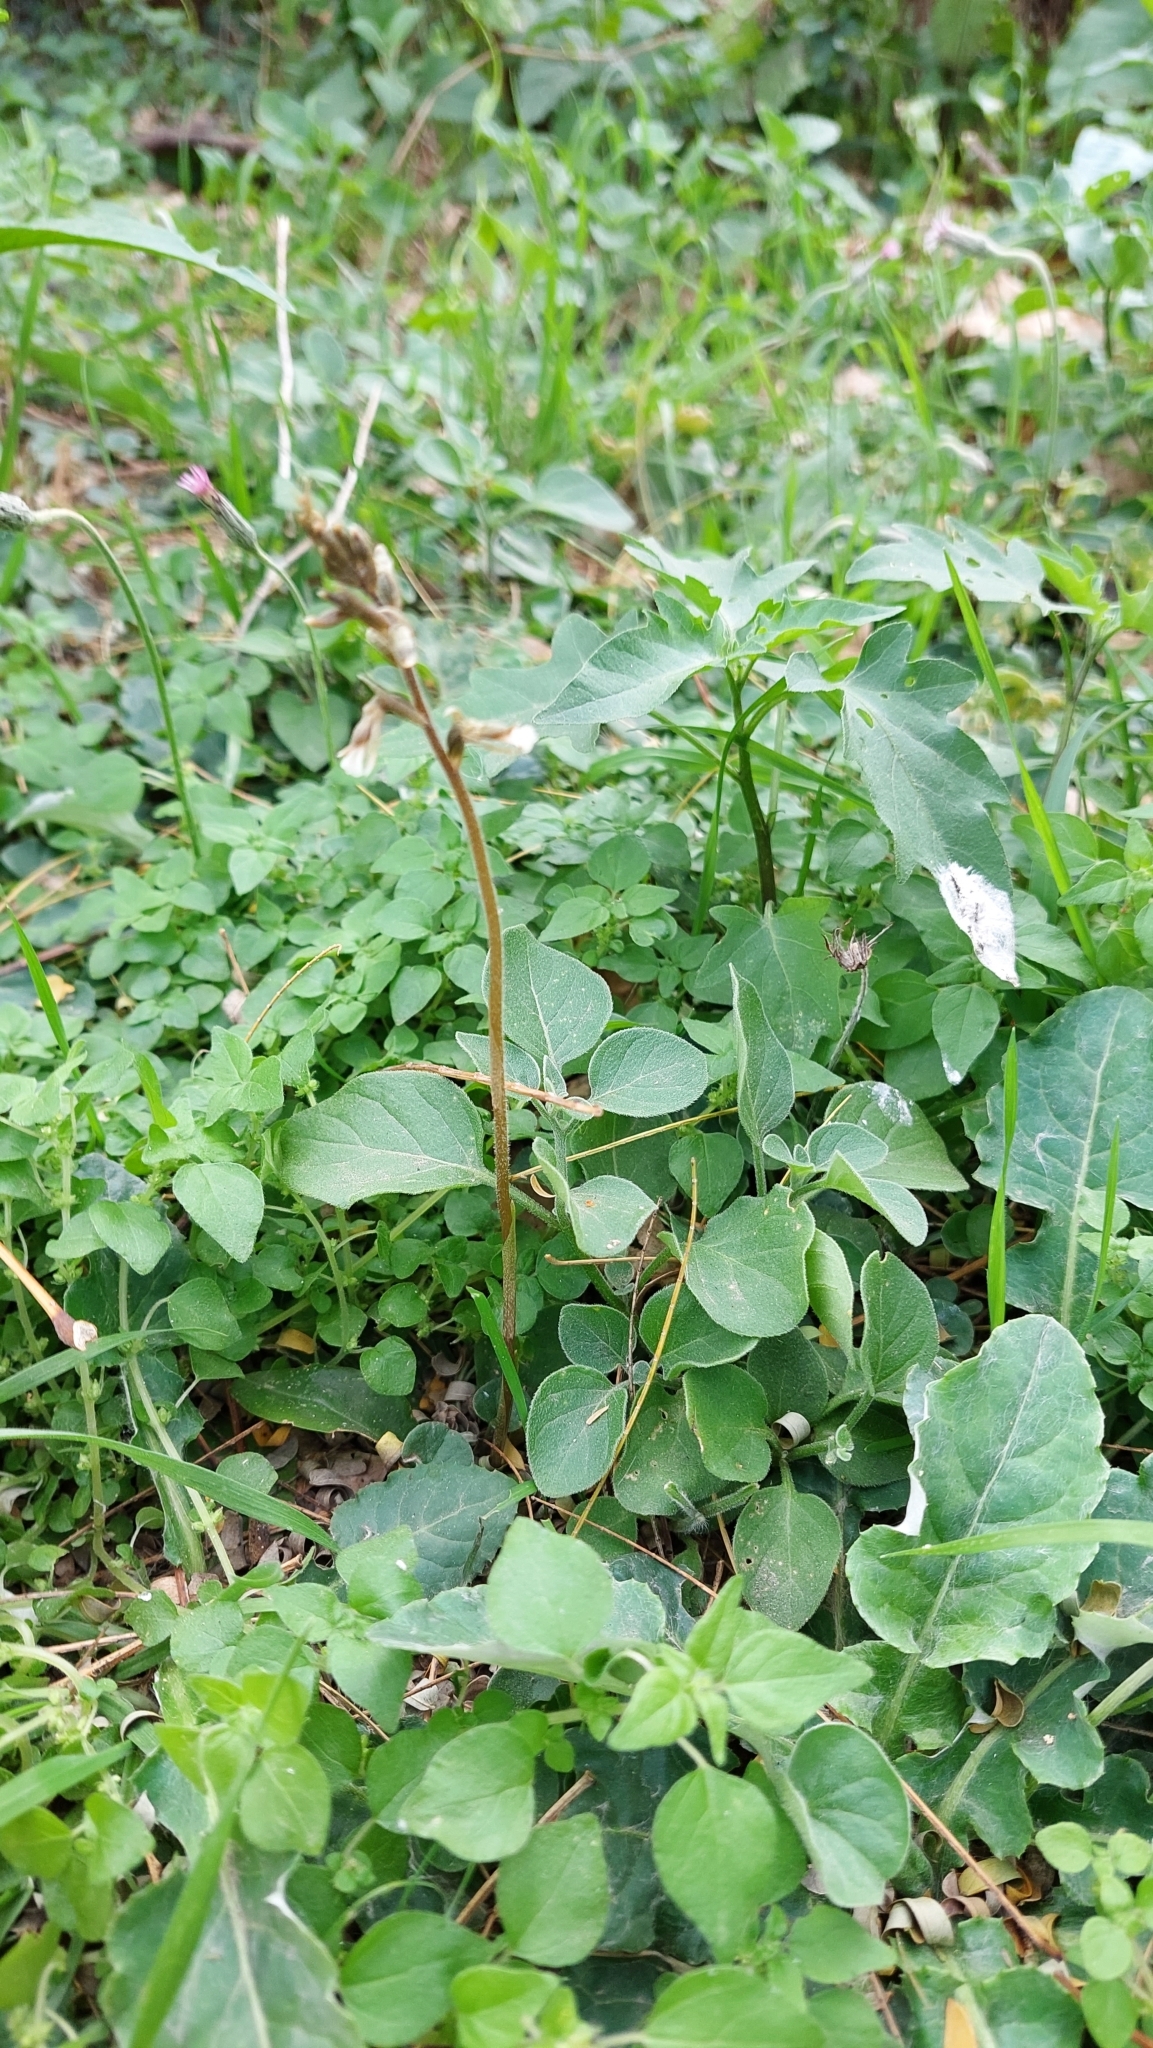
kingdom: Plantae
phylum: Tracheophyta
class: Liliopsida
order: Asparagales
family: Orchidaceae
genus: Cyclopogon
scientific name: Cyclopogon elatus
